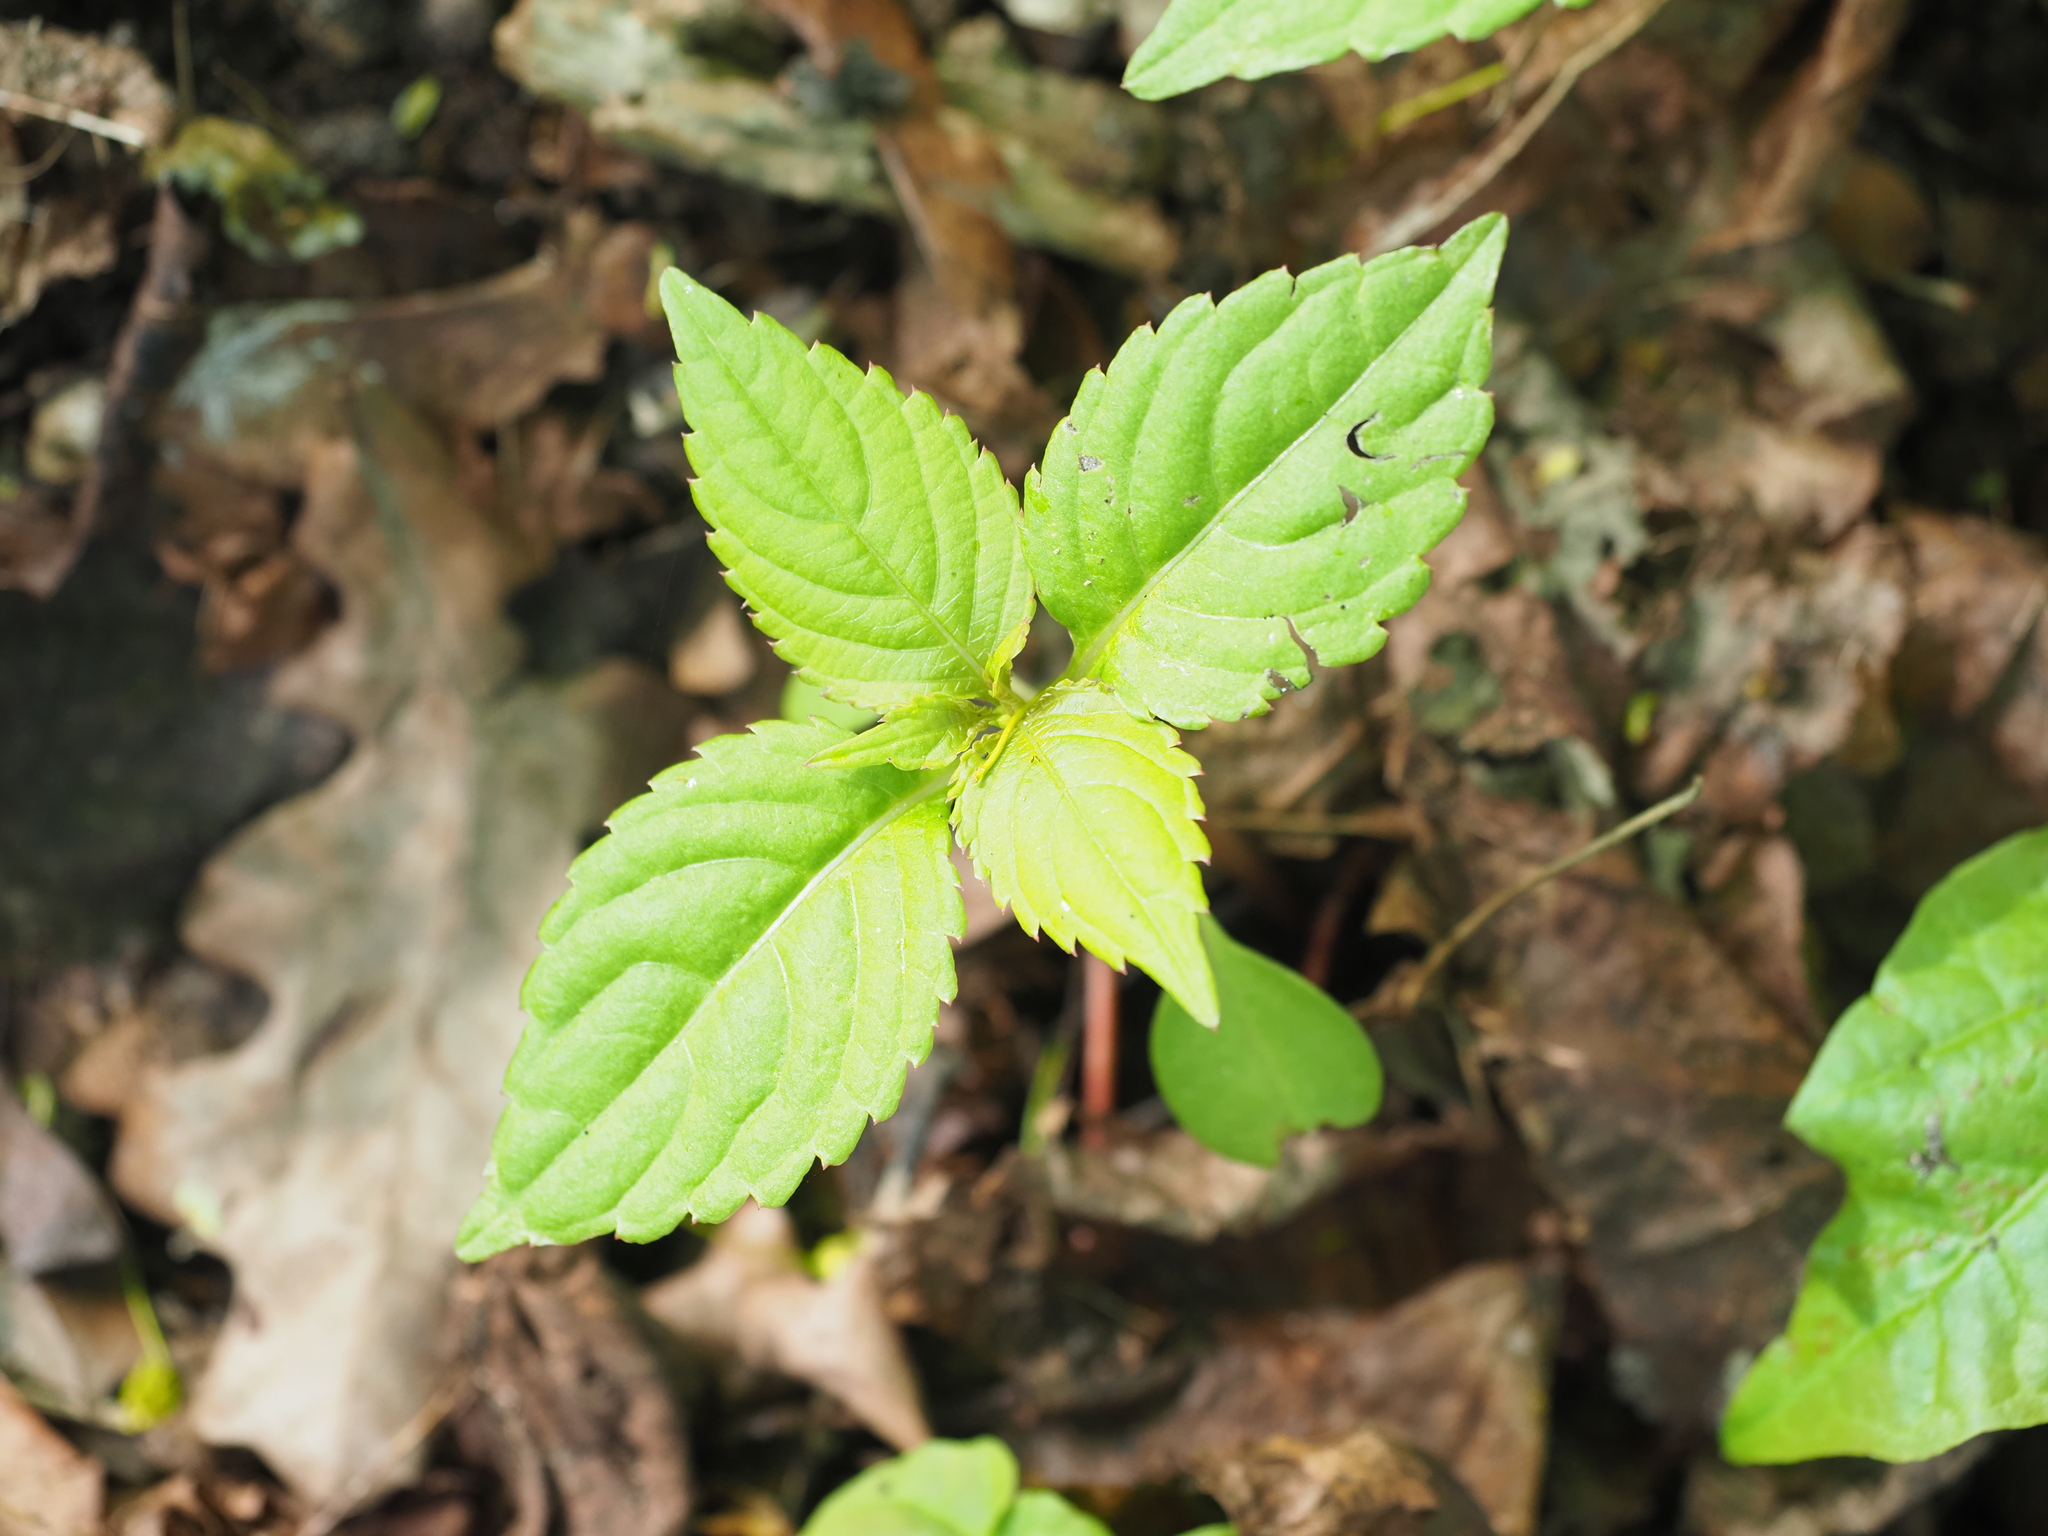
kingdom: Plantae
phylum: Tracheophyta
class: Magnoliopsida
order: Ericales
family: Balsaminaceae
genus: Impatiens
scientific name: Impatiens parviflora
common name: Small balsam
